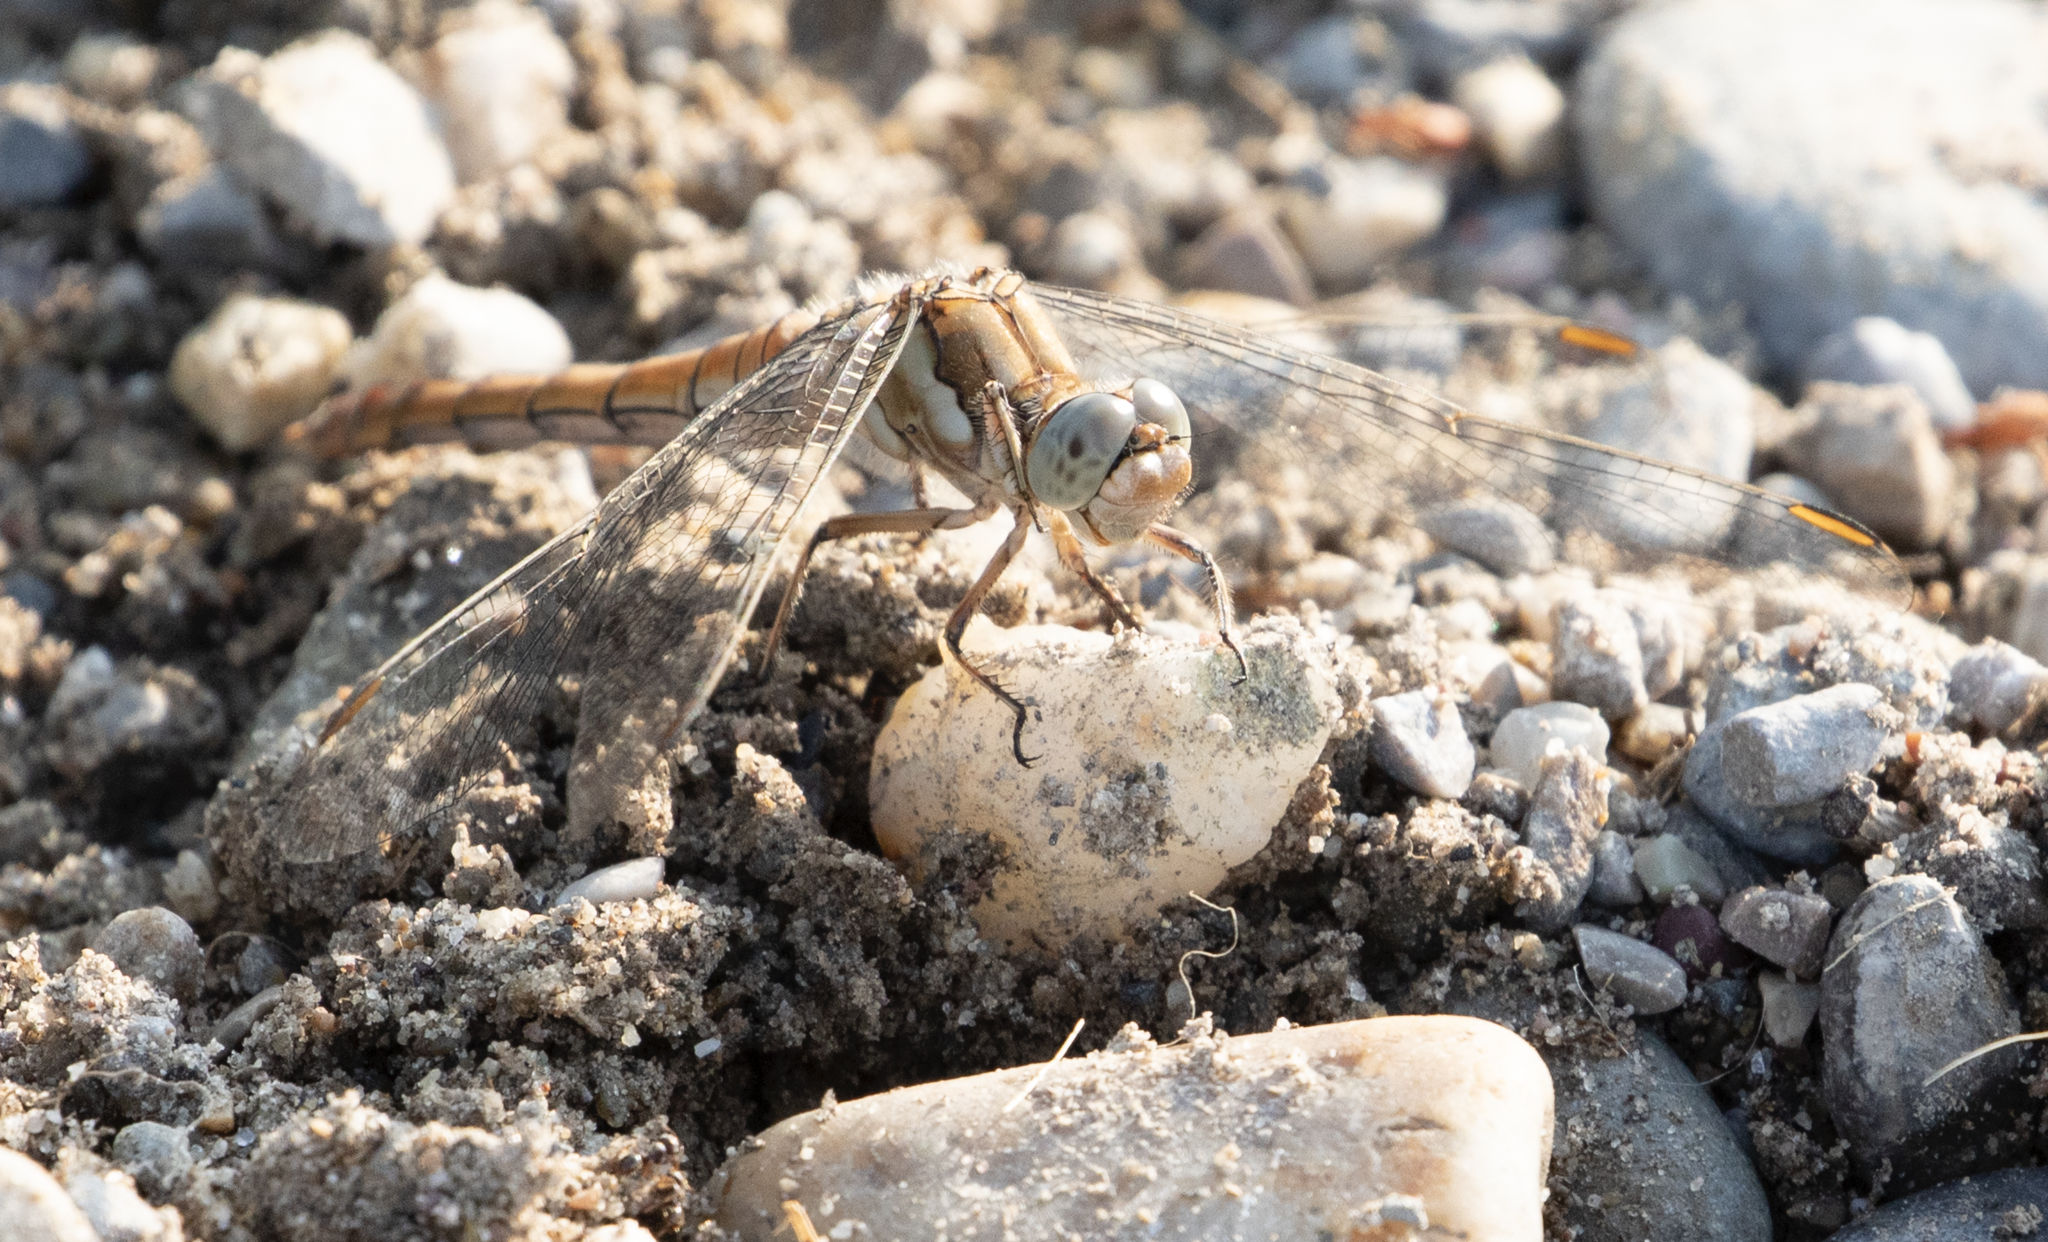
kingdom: Animalia
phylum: Arthropoda
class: Insecta
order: Odonata
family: Libellulidae
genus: Orthetrum
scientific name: Orthetrum brunneum
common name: Southern skimmer
